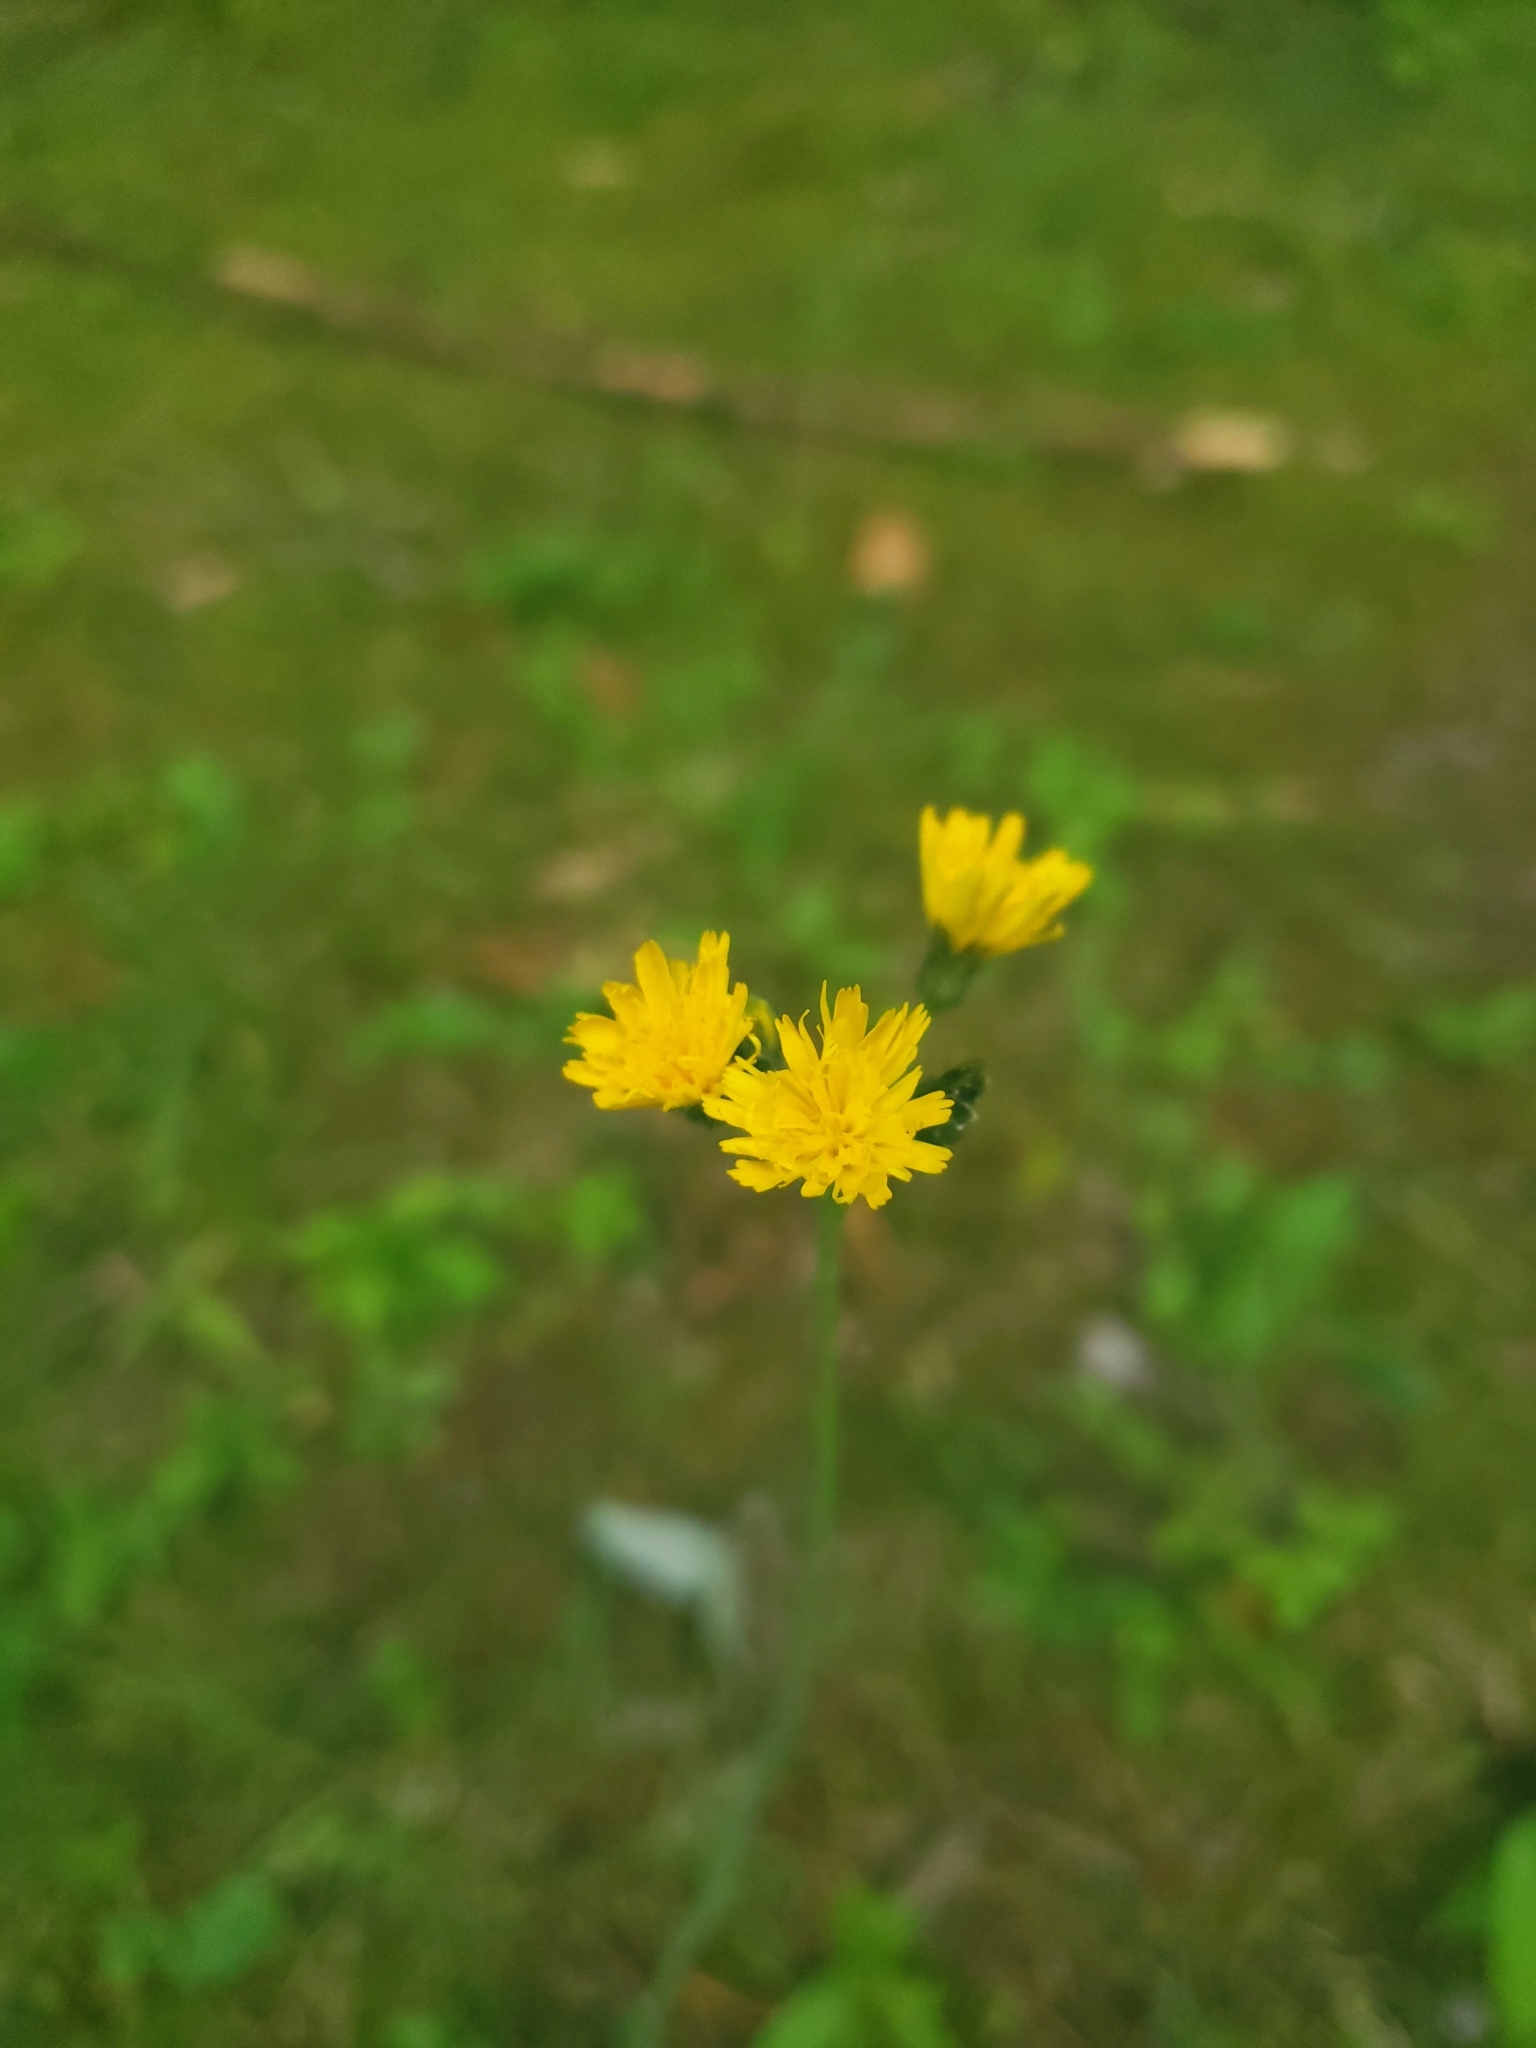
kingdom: Plantae
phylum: Tracheophyta
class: Magnoliopsida
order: Asterales
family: Asteraceae
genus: Pilosella
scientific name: Pilosella caespitosa
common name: Yellow fox-and-cubs
